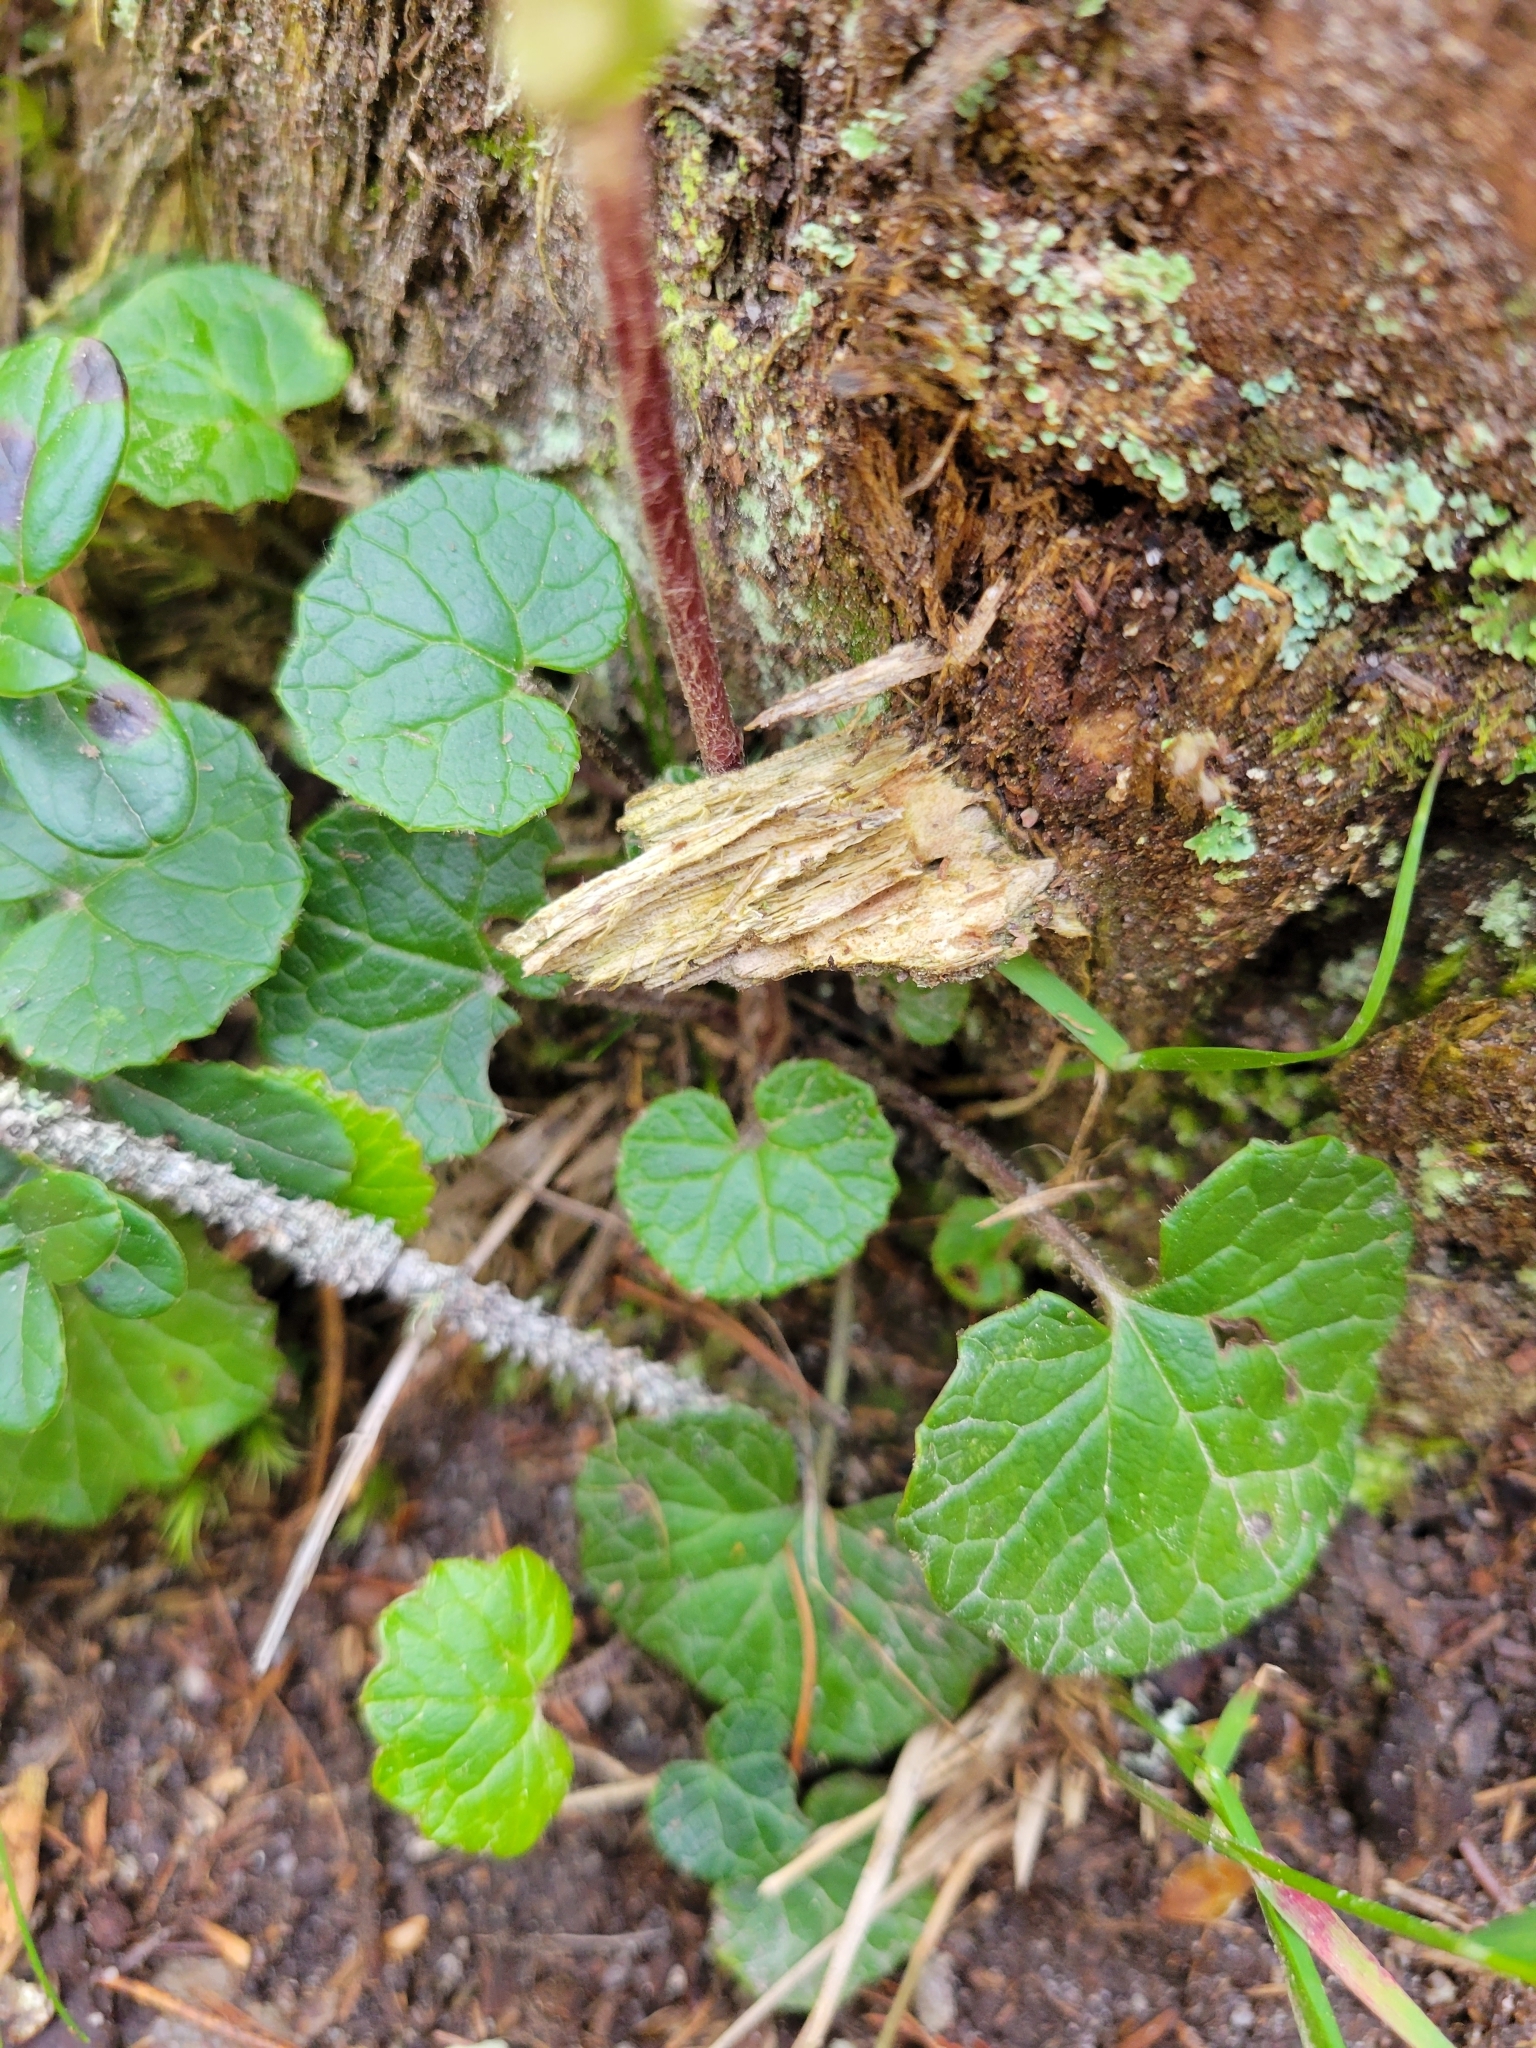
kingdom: Plantae
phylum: Tracheophyta
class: Magnoliopsida
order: Asterales
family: Asteraceae
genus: Homogyne
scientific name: Homogyne alpina
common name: Purple colt's-foot
